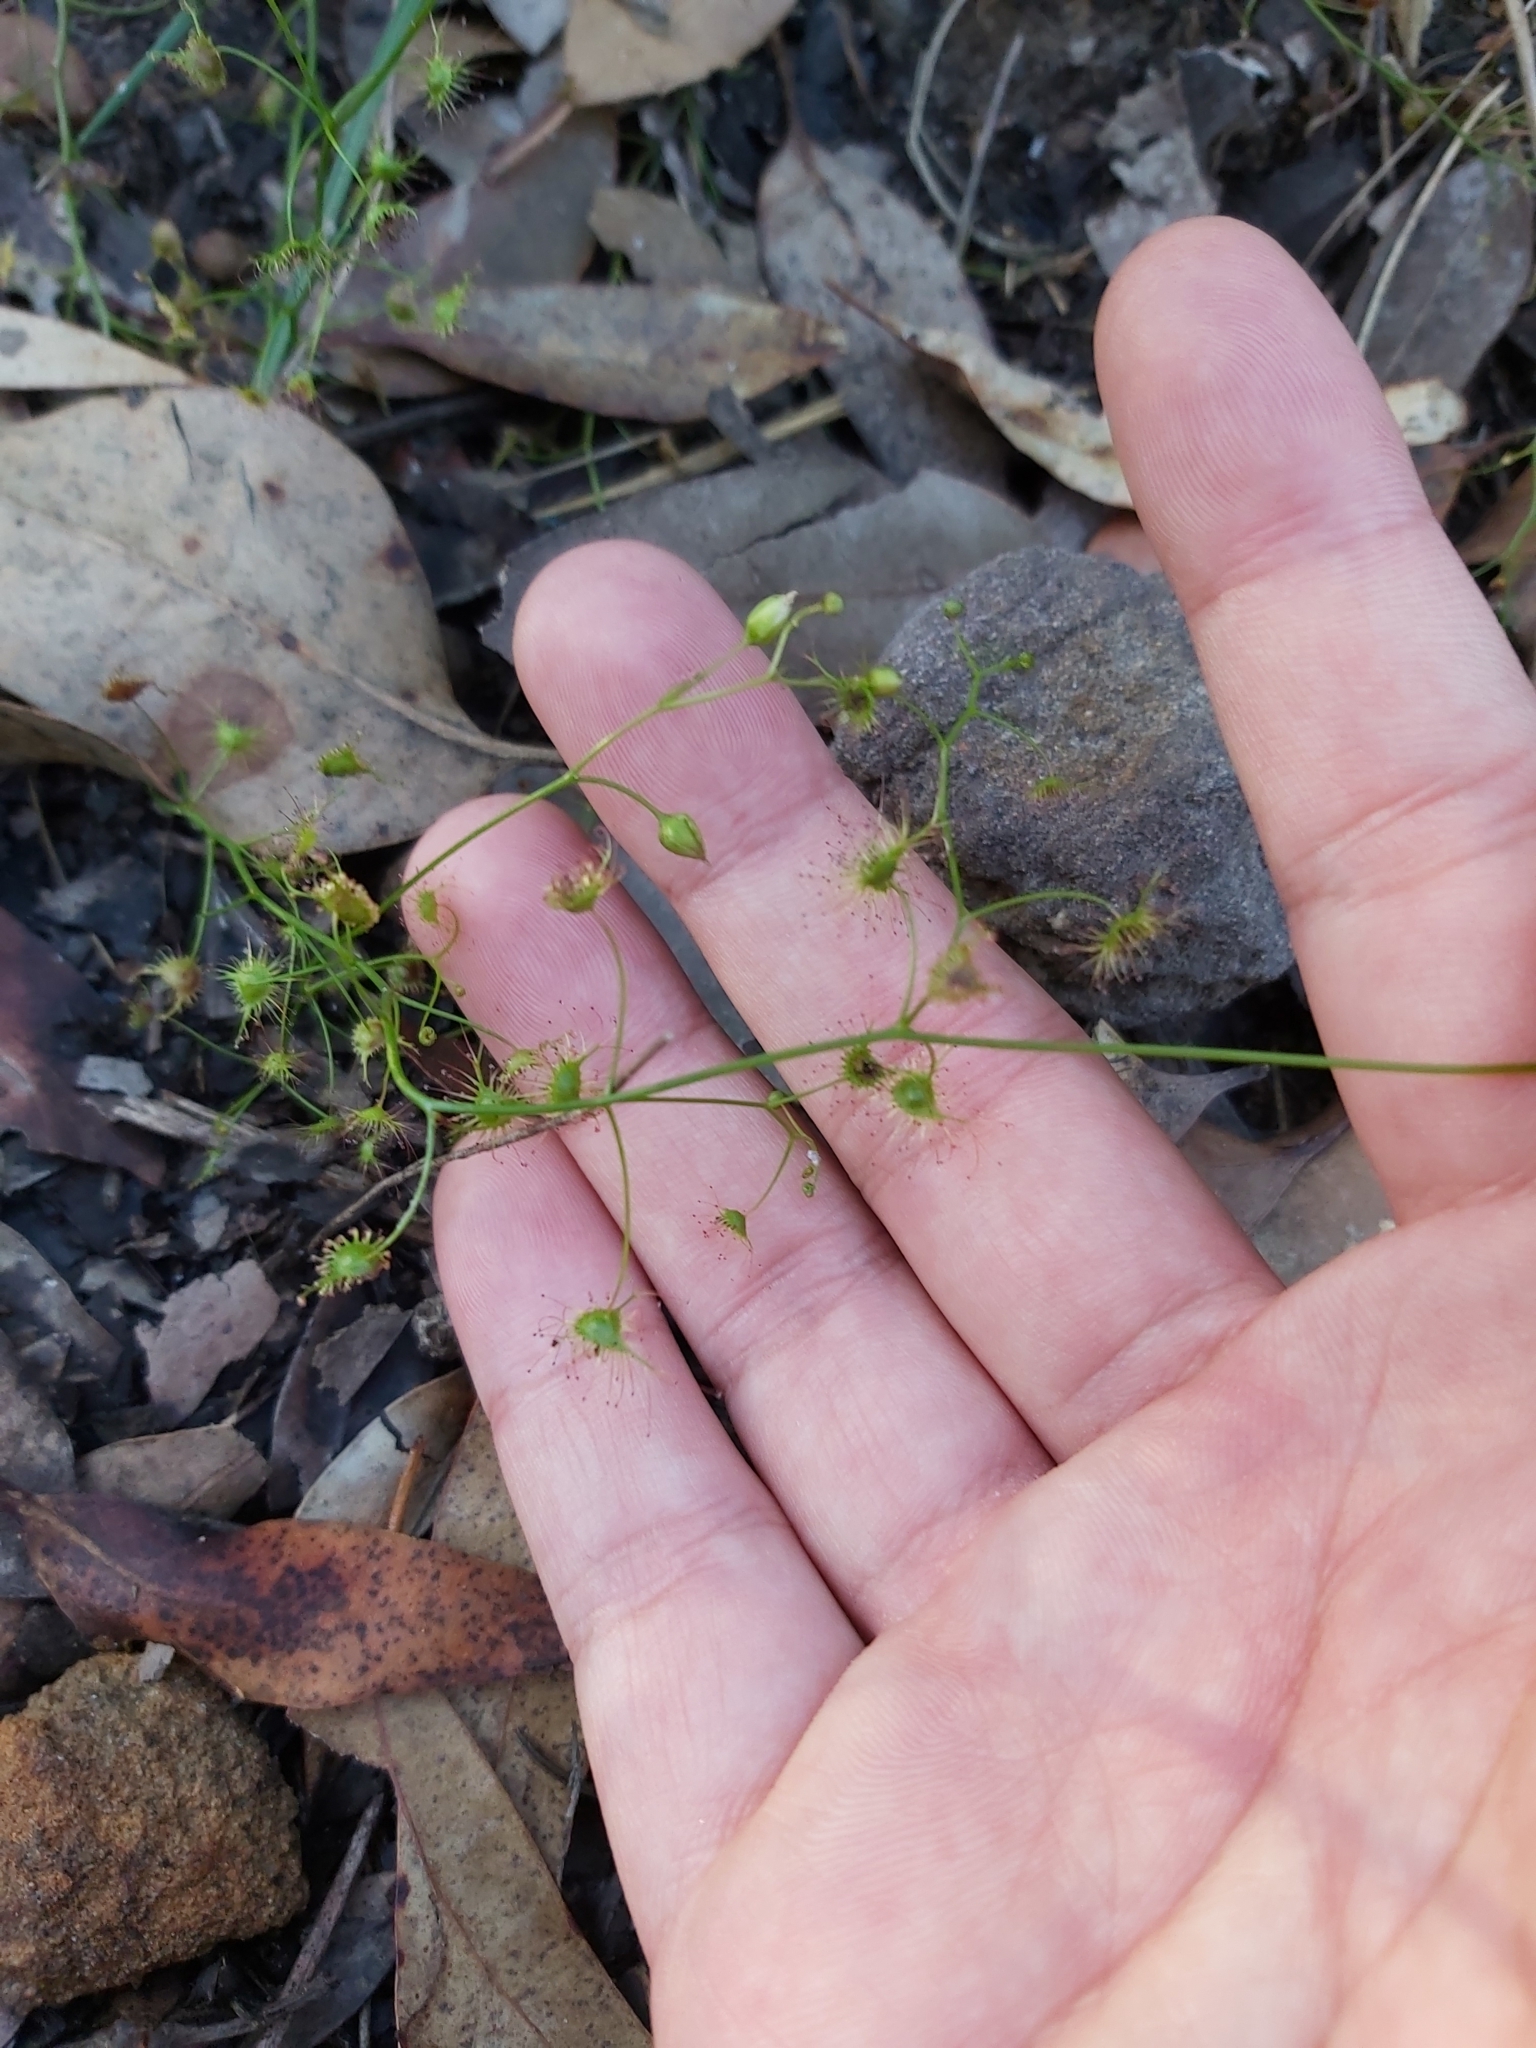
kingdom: Plantae
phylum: Tracheophyta
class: Magnoliopsida
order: Caryophyllales
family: Droseraceae
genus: Drosera
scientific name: Drosera peltata
